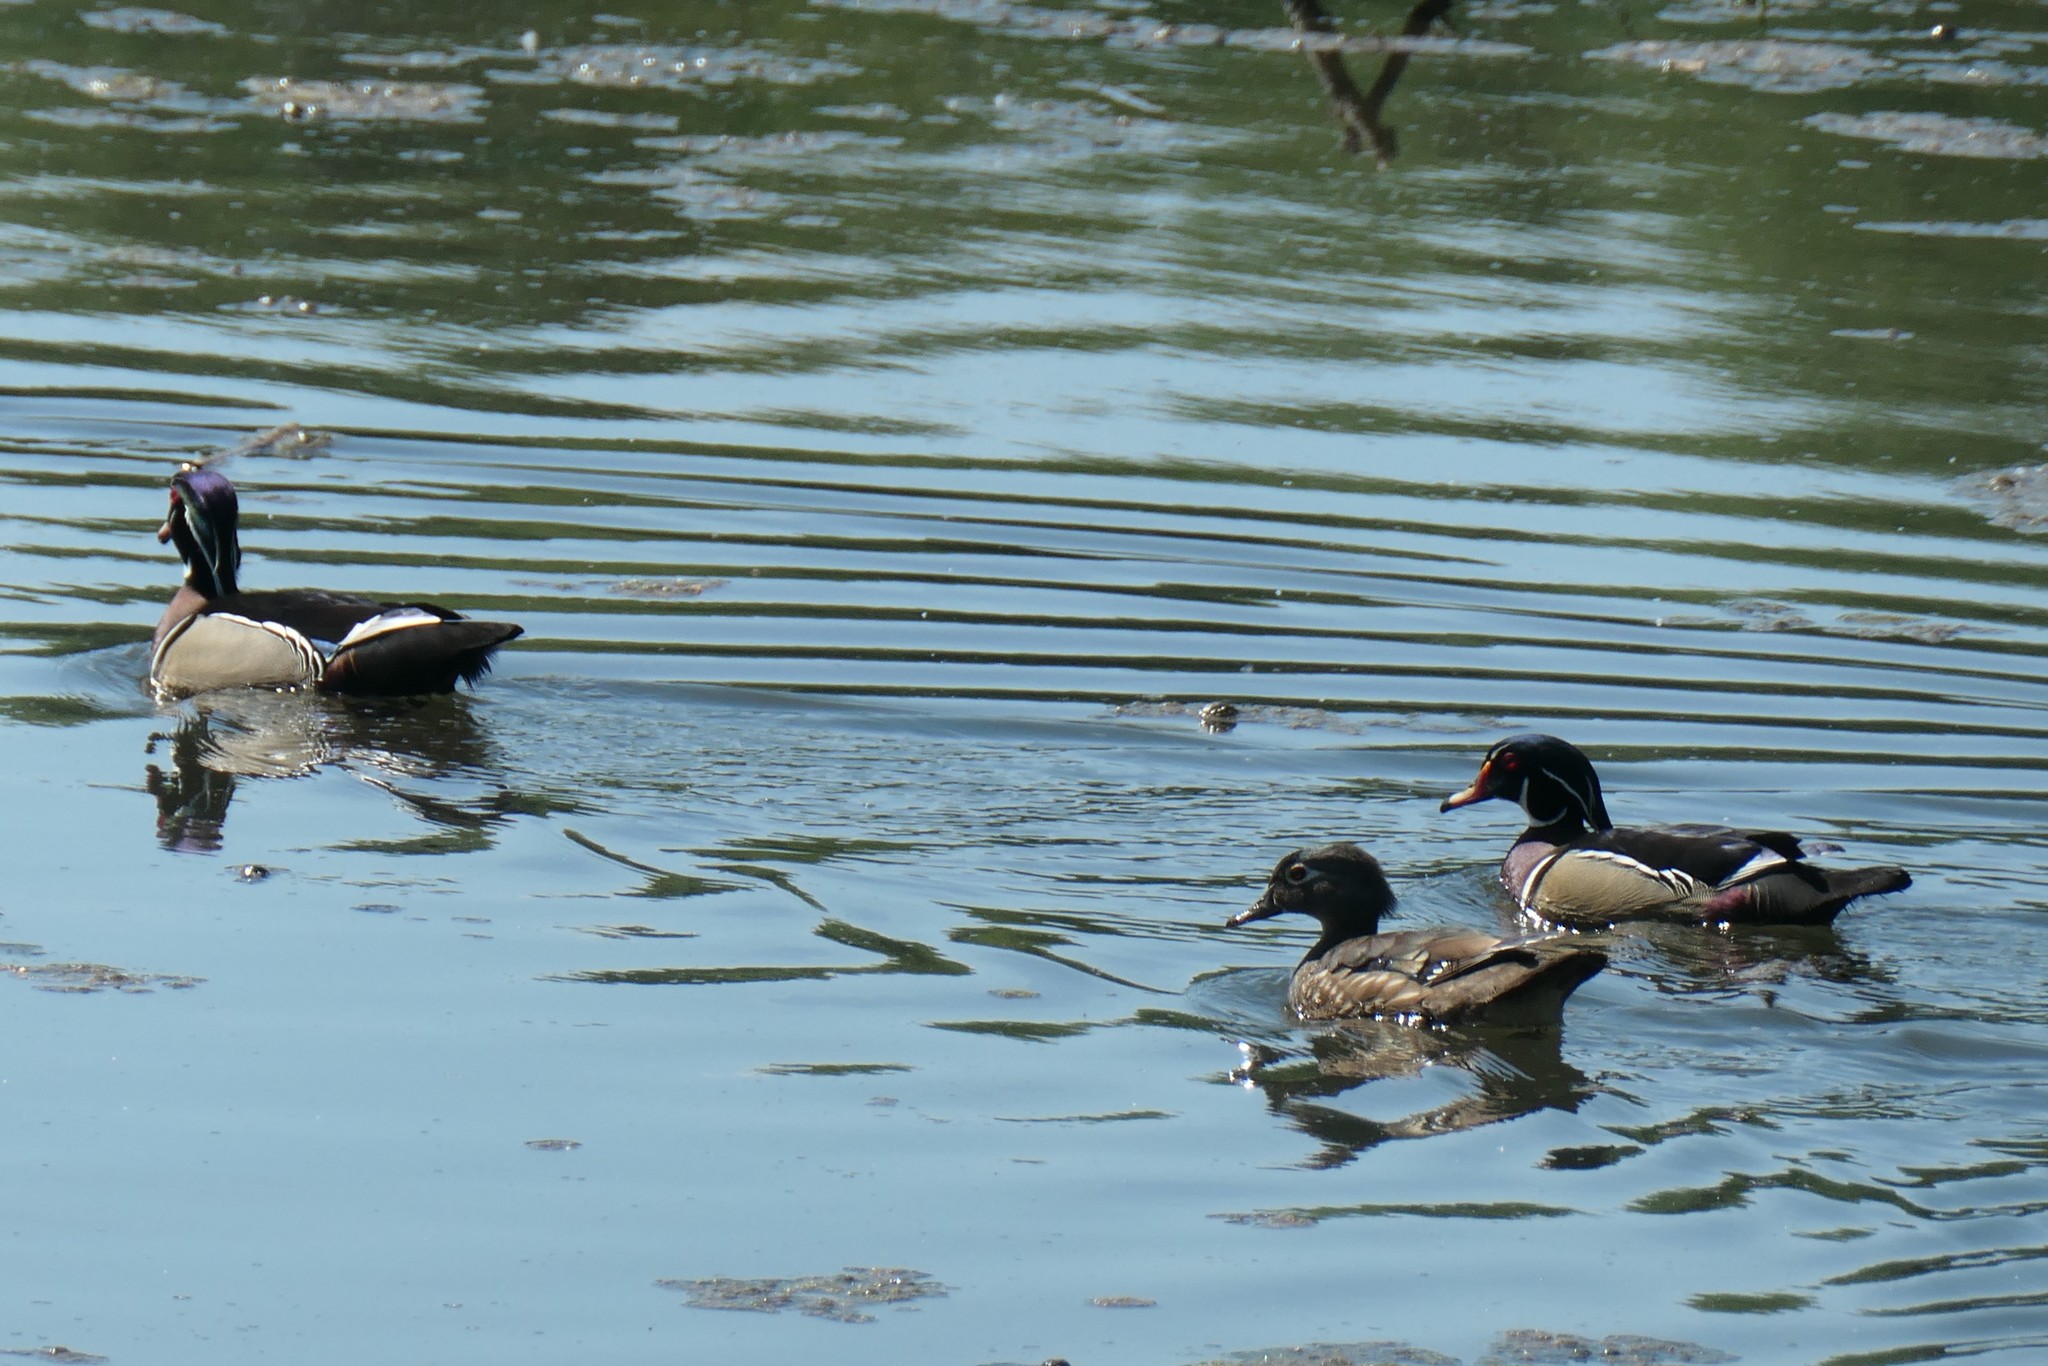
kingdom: Animalia
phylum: Chordata
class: Aves
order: Anseriformes
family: Anatidae
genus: Aix
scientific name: Aix sponsa
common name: Wood duck
